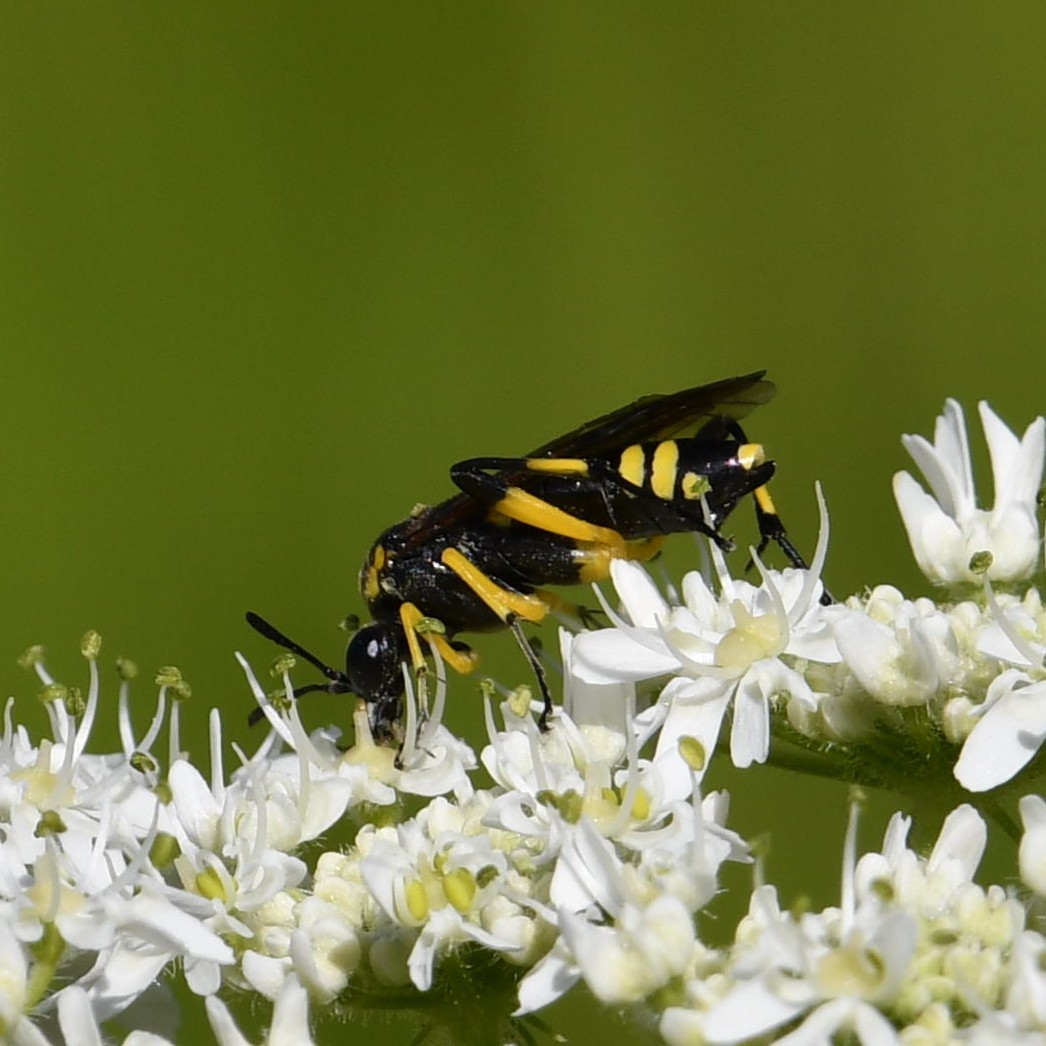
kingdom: Animalia
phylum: Arthropoda
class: Insecta
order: Hymenoptera
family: Tenthredinidae
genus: Macrophya
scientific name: Macrophya montana
